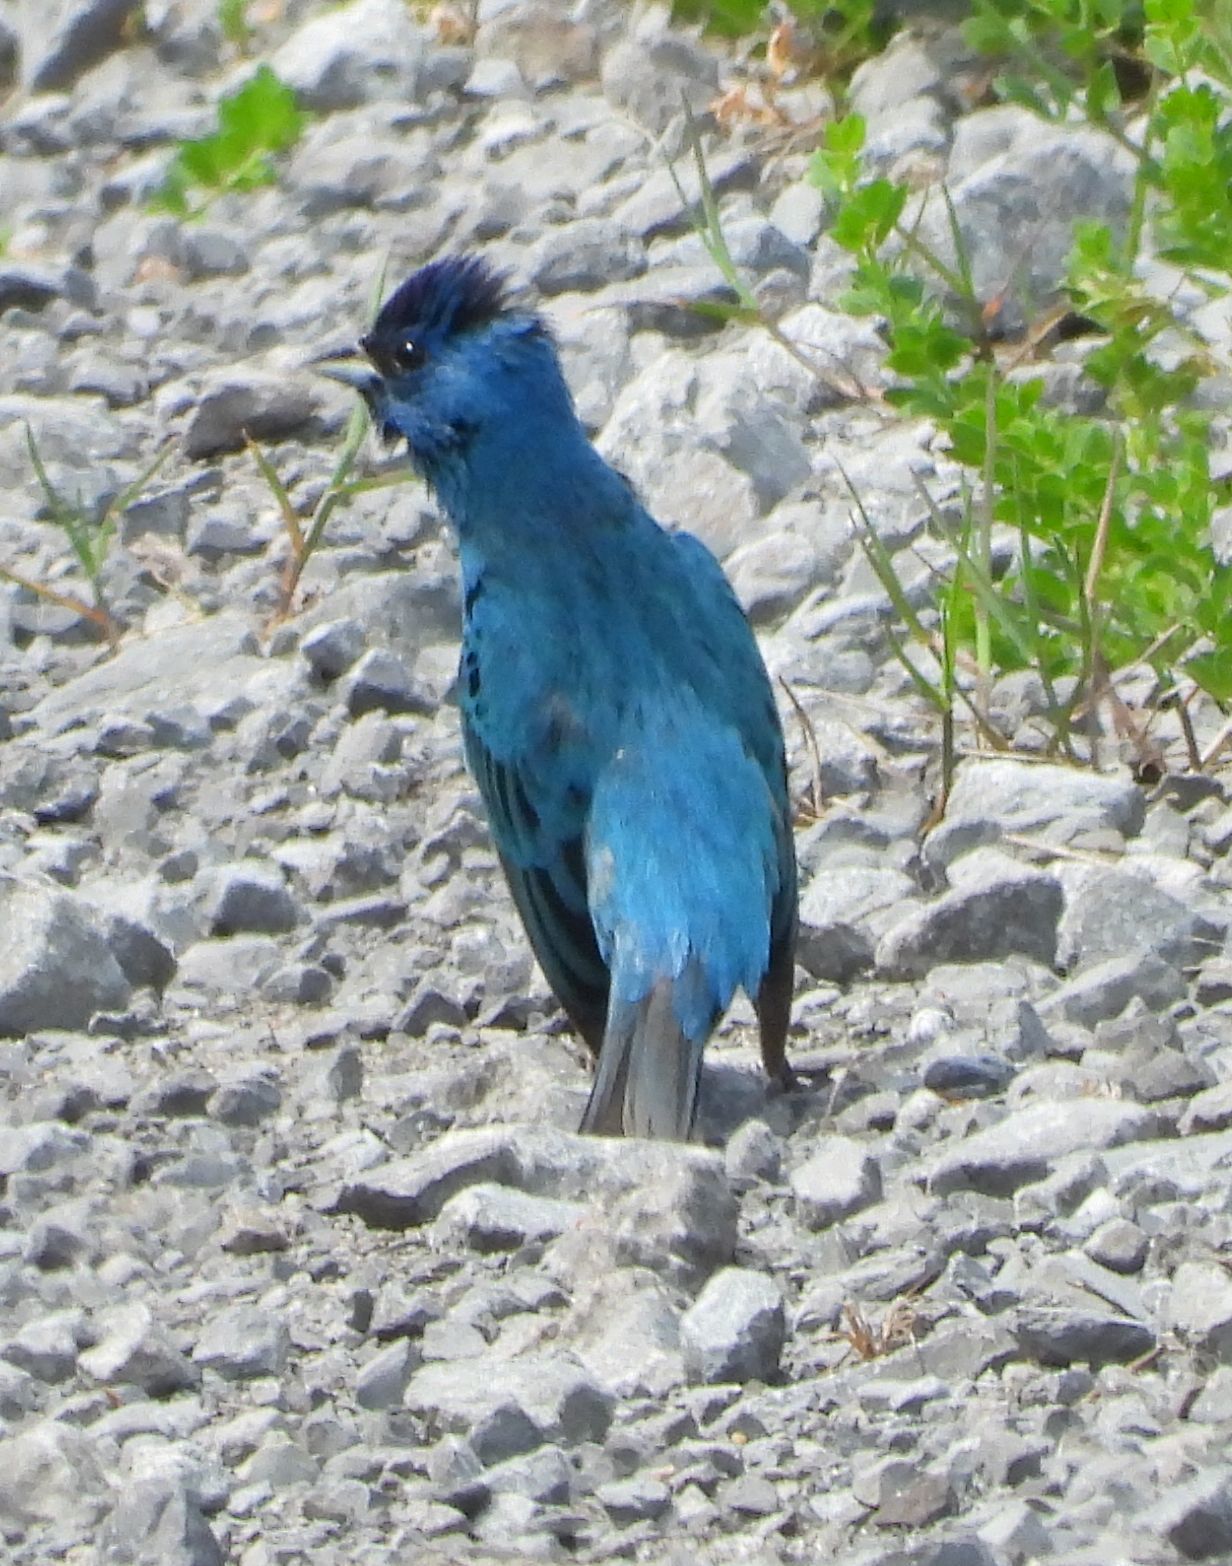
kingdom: Animalia
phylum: Chordata
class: Aves
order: Passeriformes
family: Cardinalidae
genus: Passerina
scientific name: Passerina cyanea
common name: Indigo bunting
